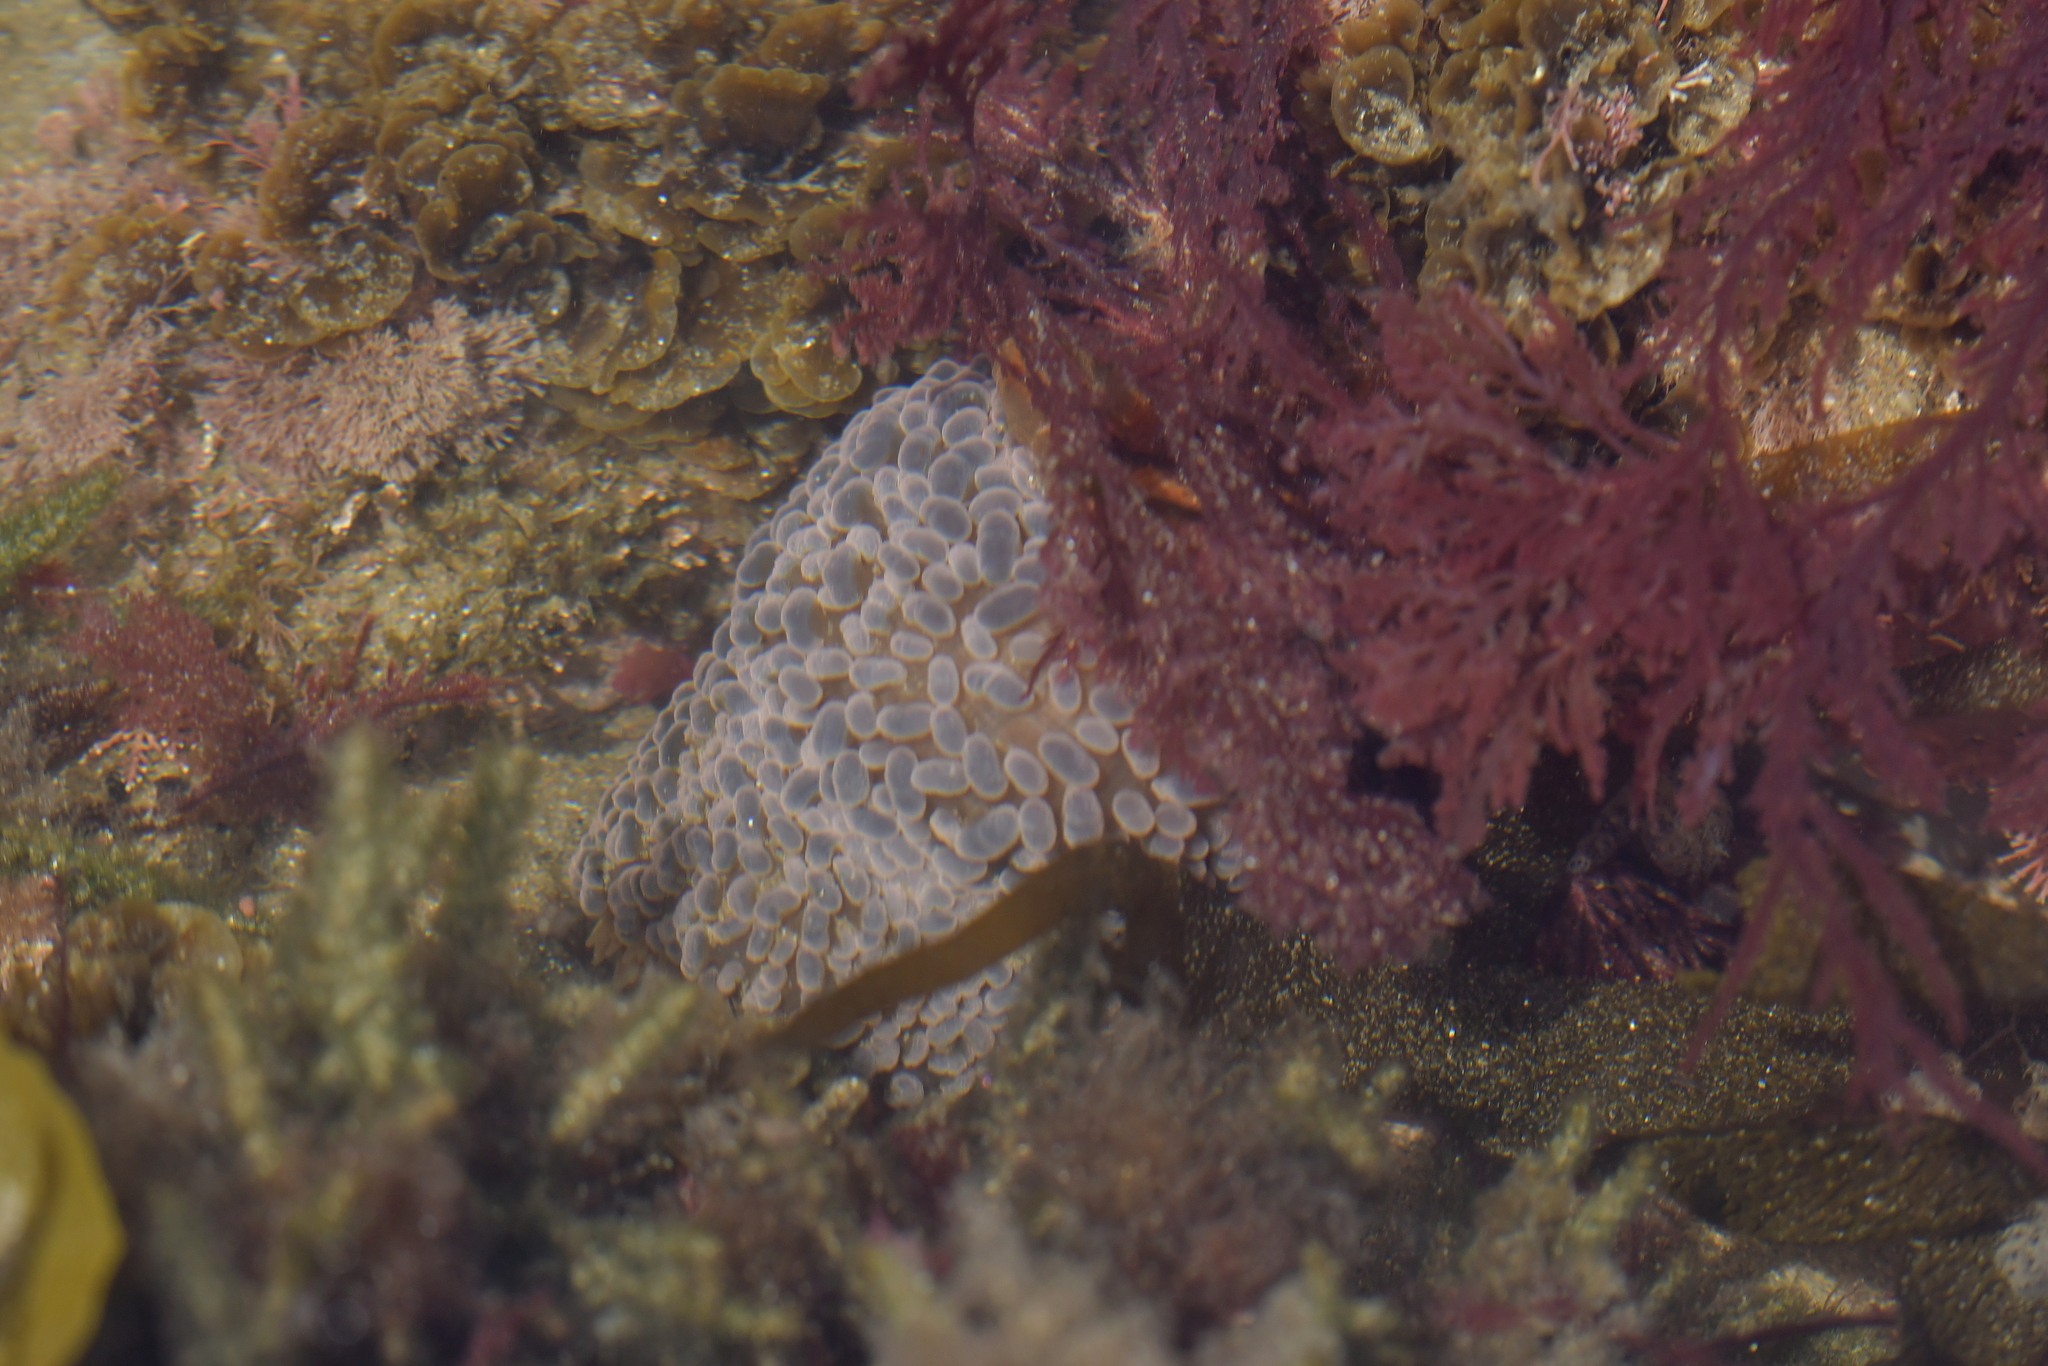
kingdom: Animalia
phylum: Cnidaria
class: Anthozoa
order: Actiniaria
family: Actiniidae
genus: Phlyctenactis
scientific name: Phlyctenactis tuberculosa
